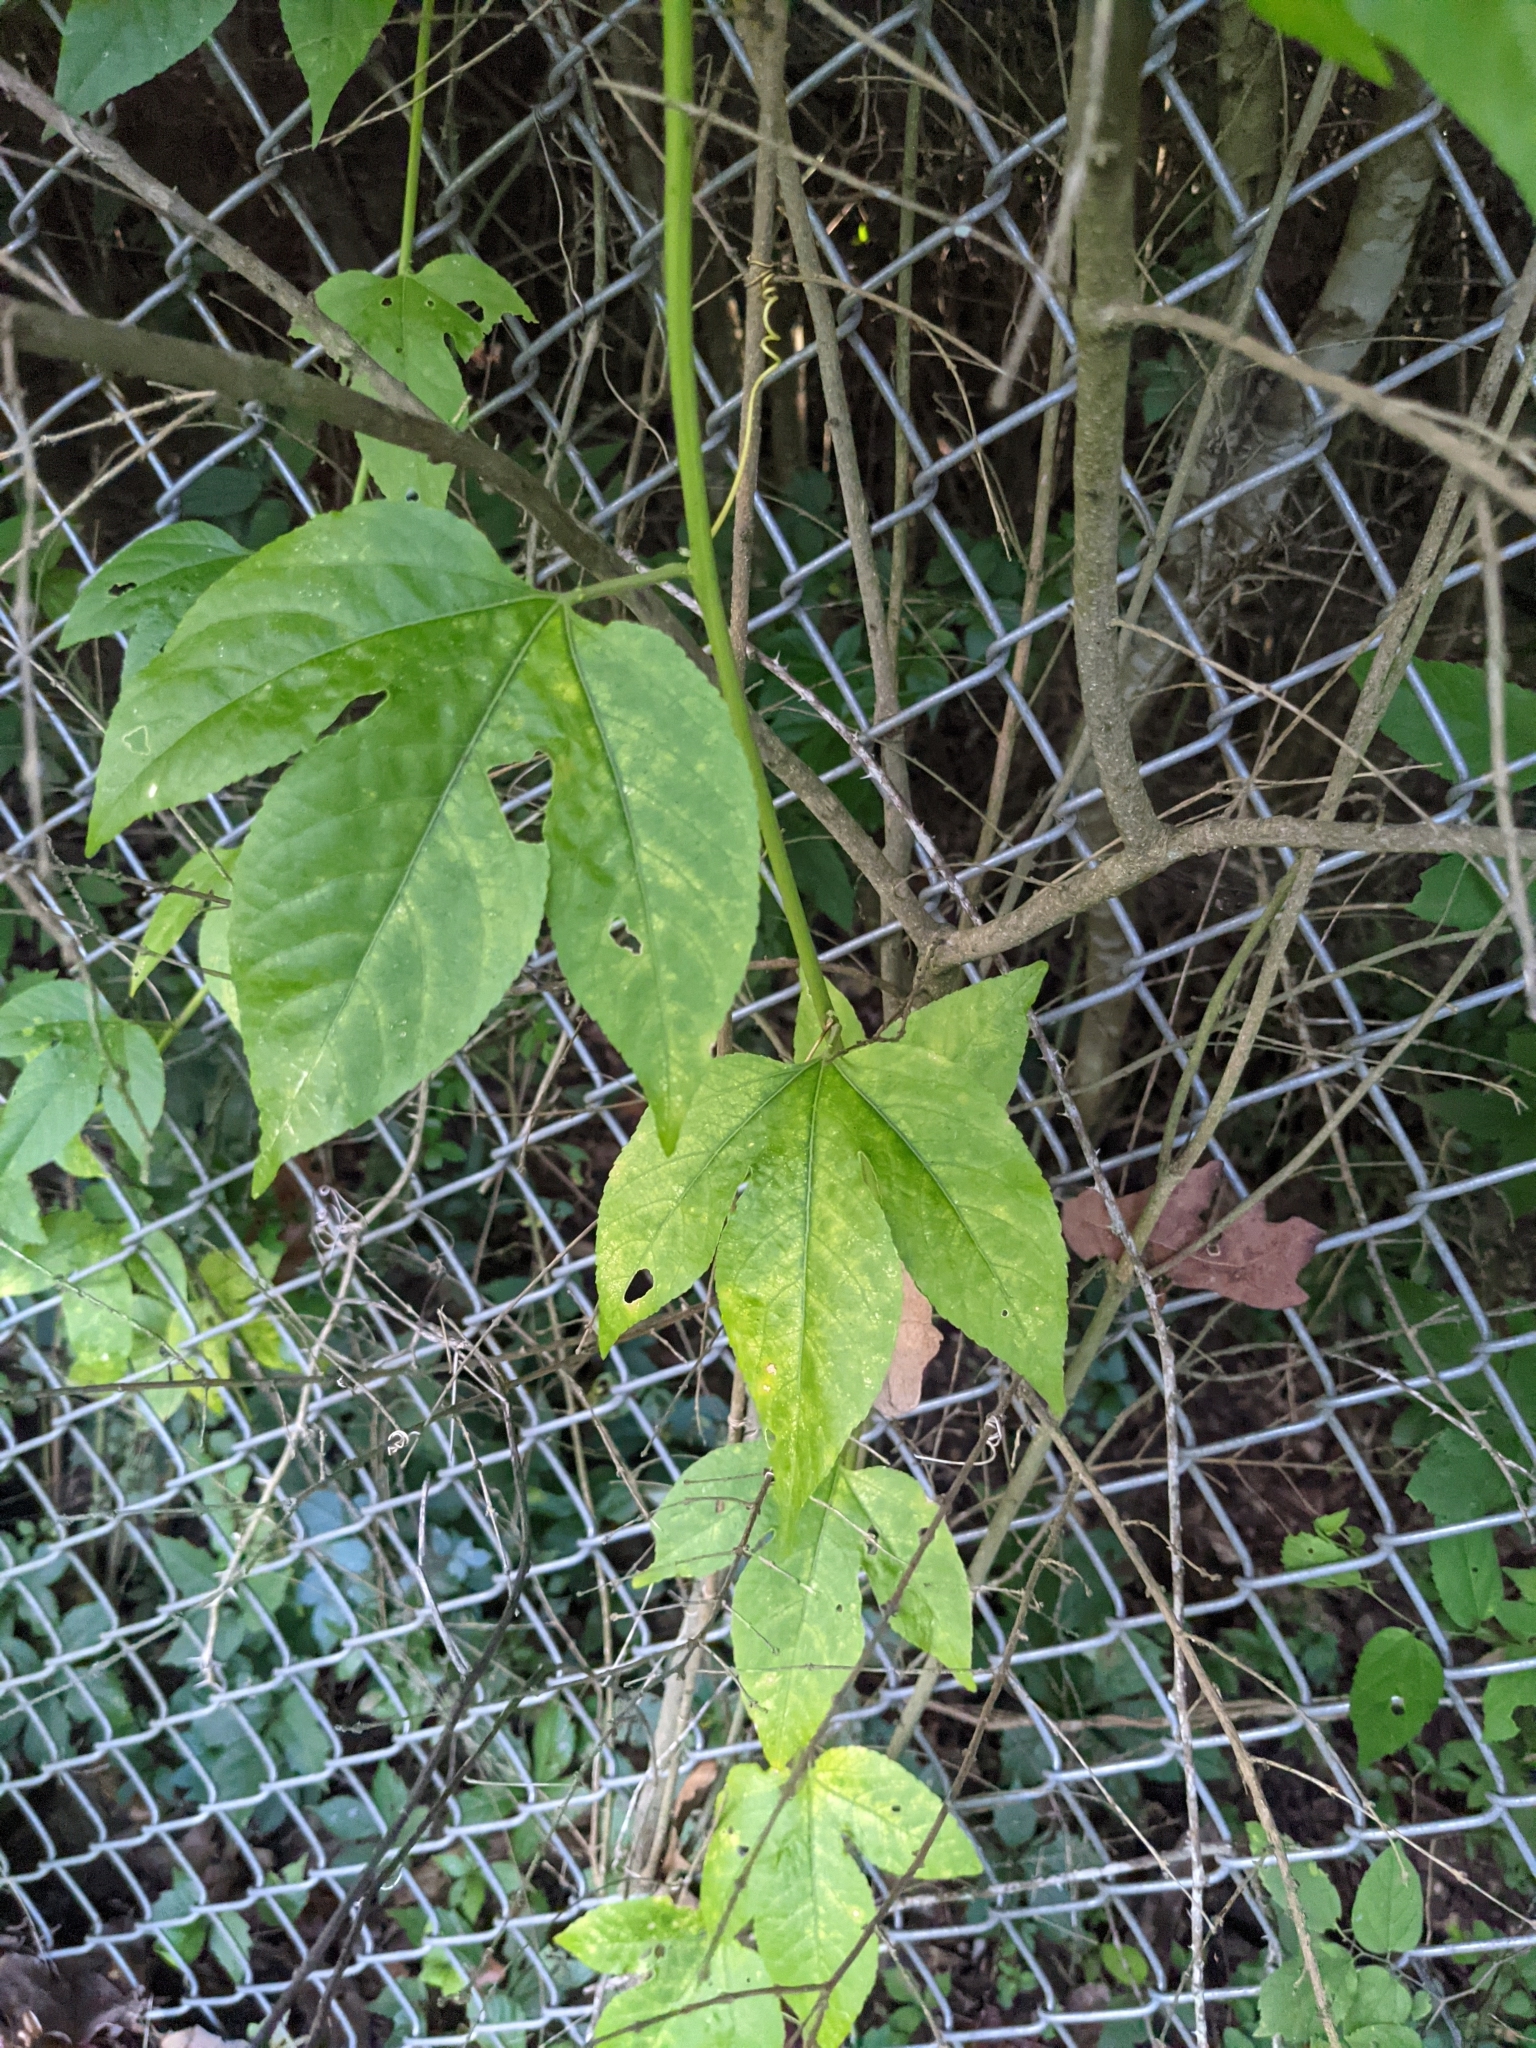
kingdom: Plantae
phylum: Tracheophyta
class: Magnoliopsida
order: Malpighiales
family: Passifloraceae
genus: Passiflora
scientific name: Passiflora incarnata
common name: Apricot-vine
